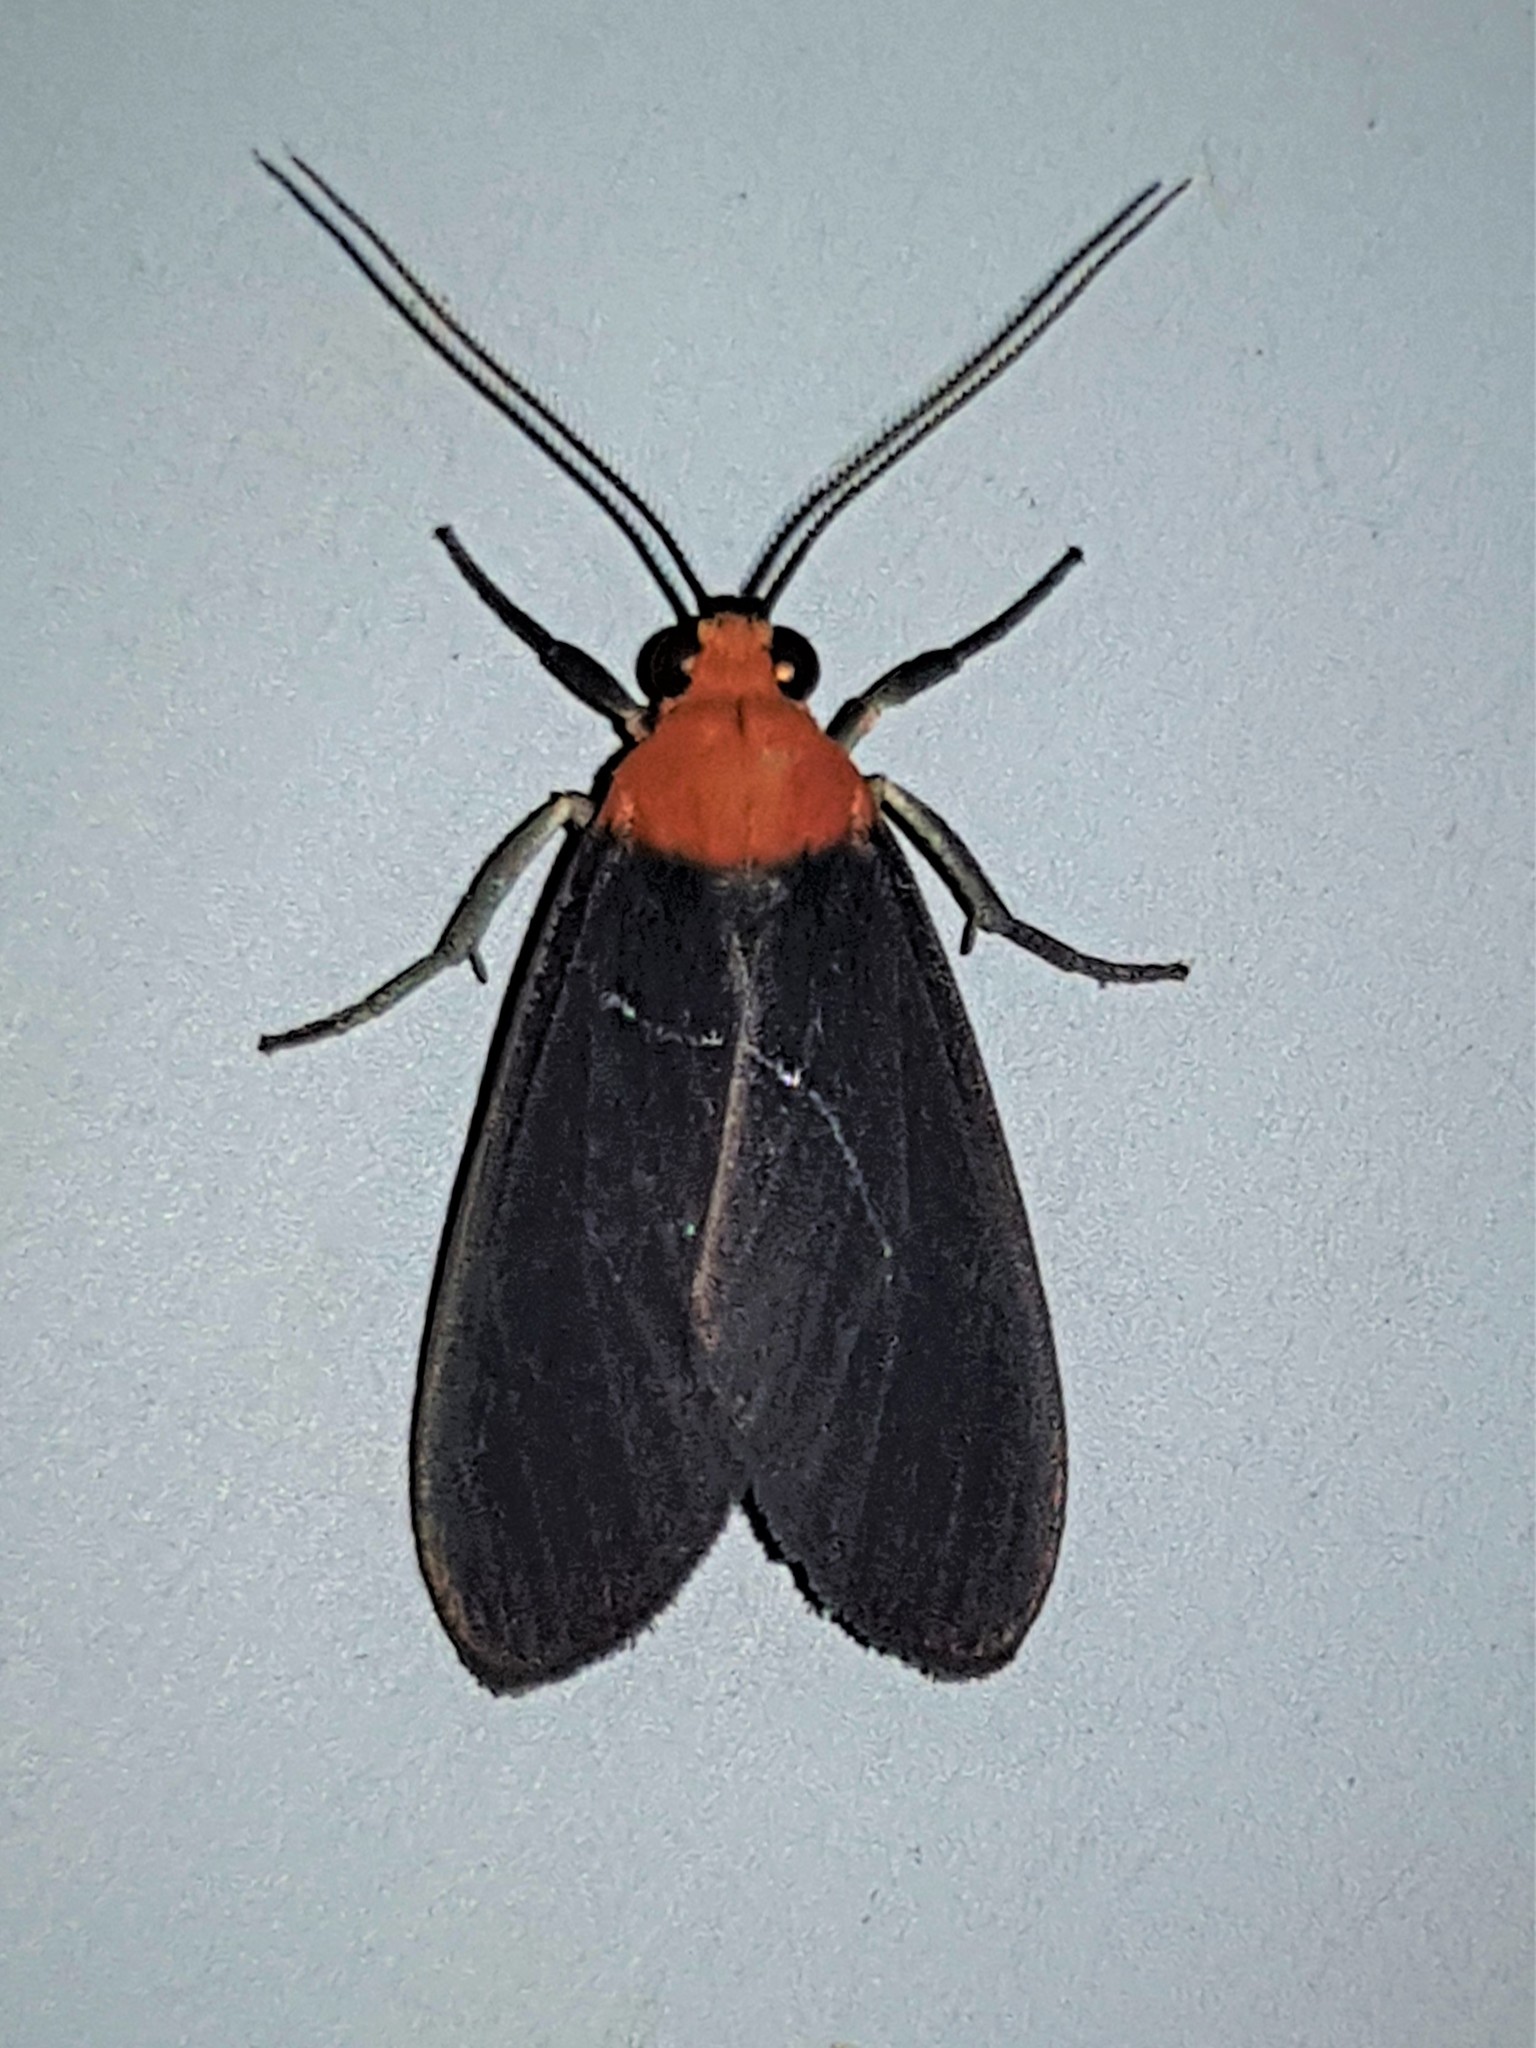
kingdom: Animalia
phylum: Arthropoda
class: Insecta
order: Lepidoptera
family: Erebidae
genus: Haemanota
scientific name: Haemanota sanguidorsia
